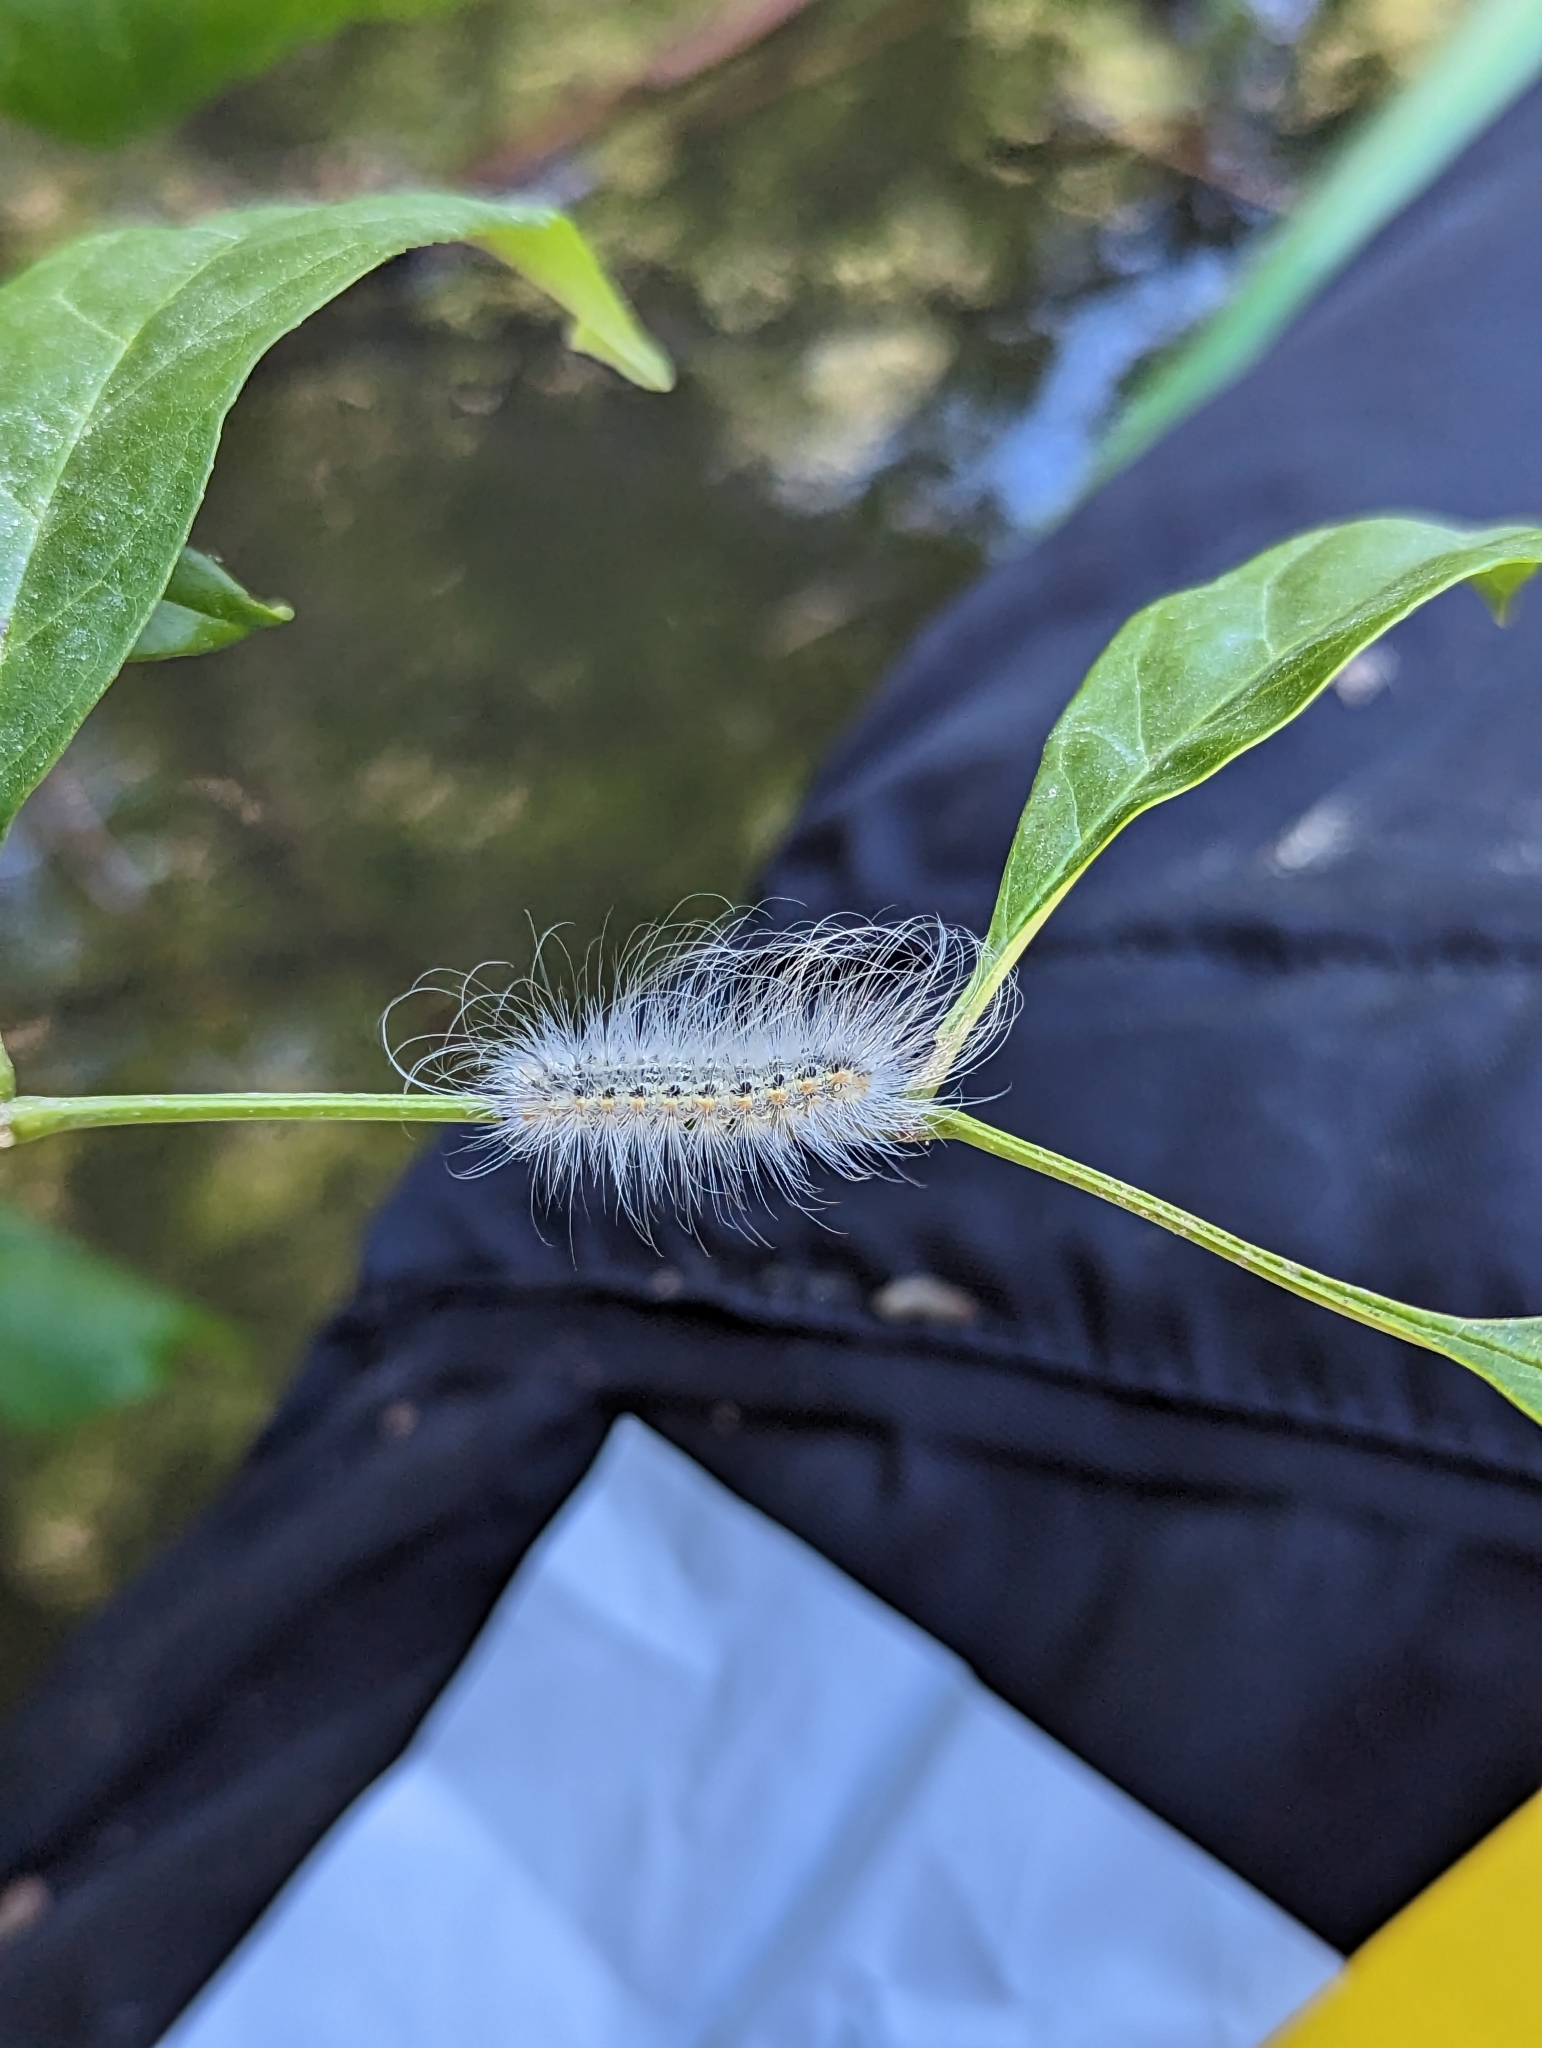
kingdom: Animalia
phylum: Arthropoda
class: Insecta
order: Lepidoptera
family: Erebidae
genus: Hyphantria
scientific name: Hyphantria cunea
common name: American white moth
